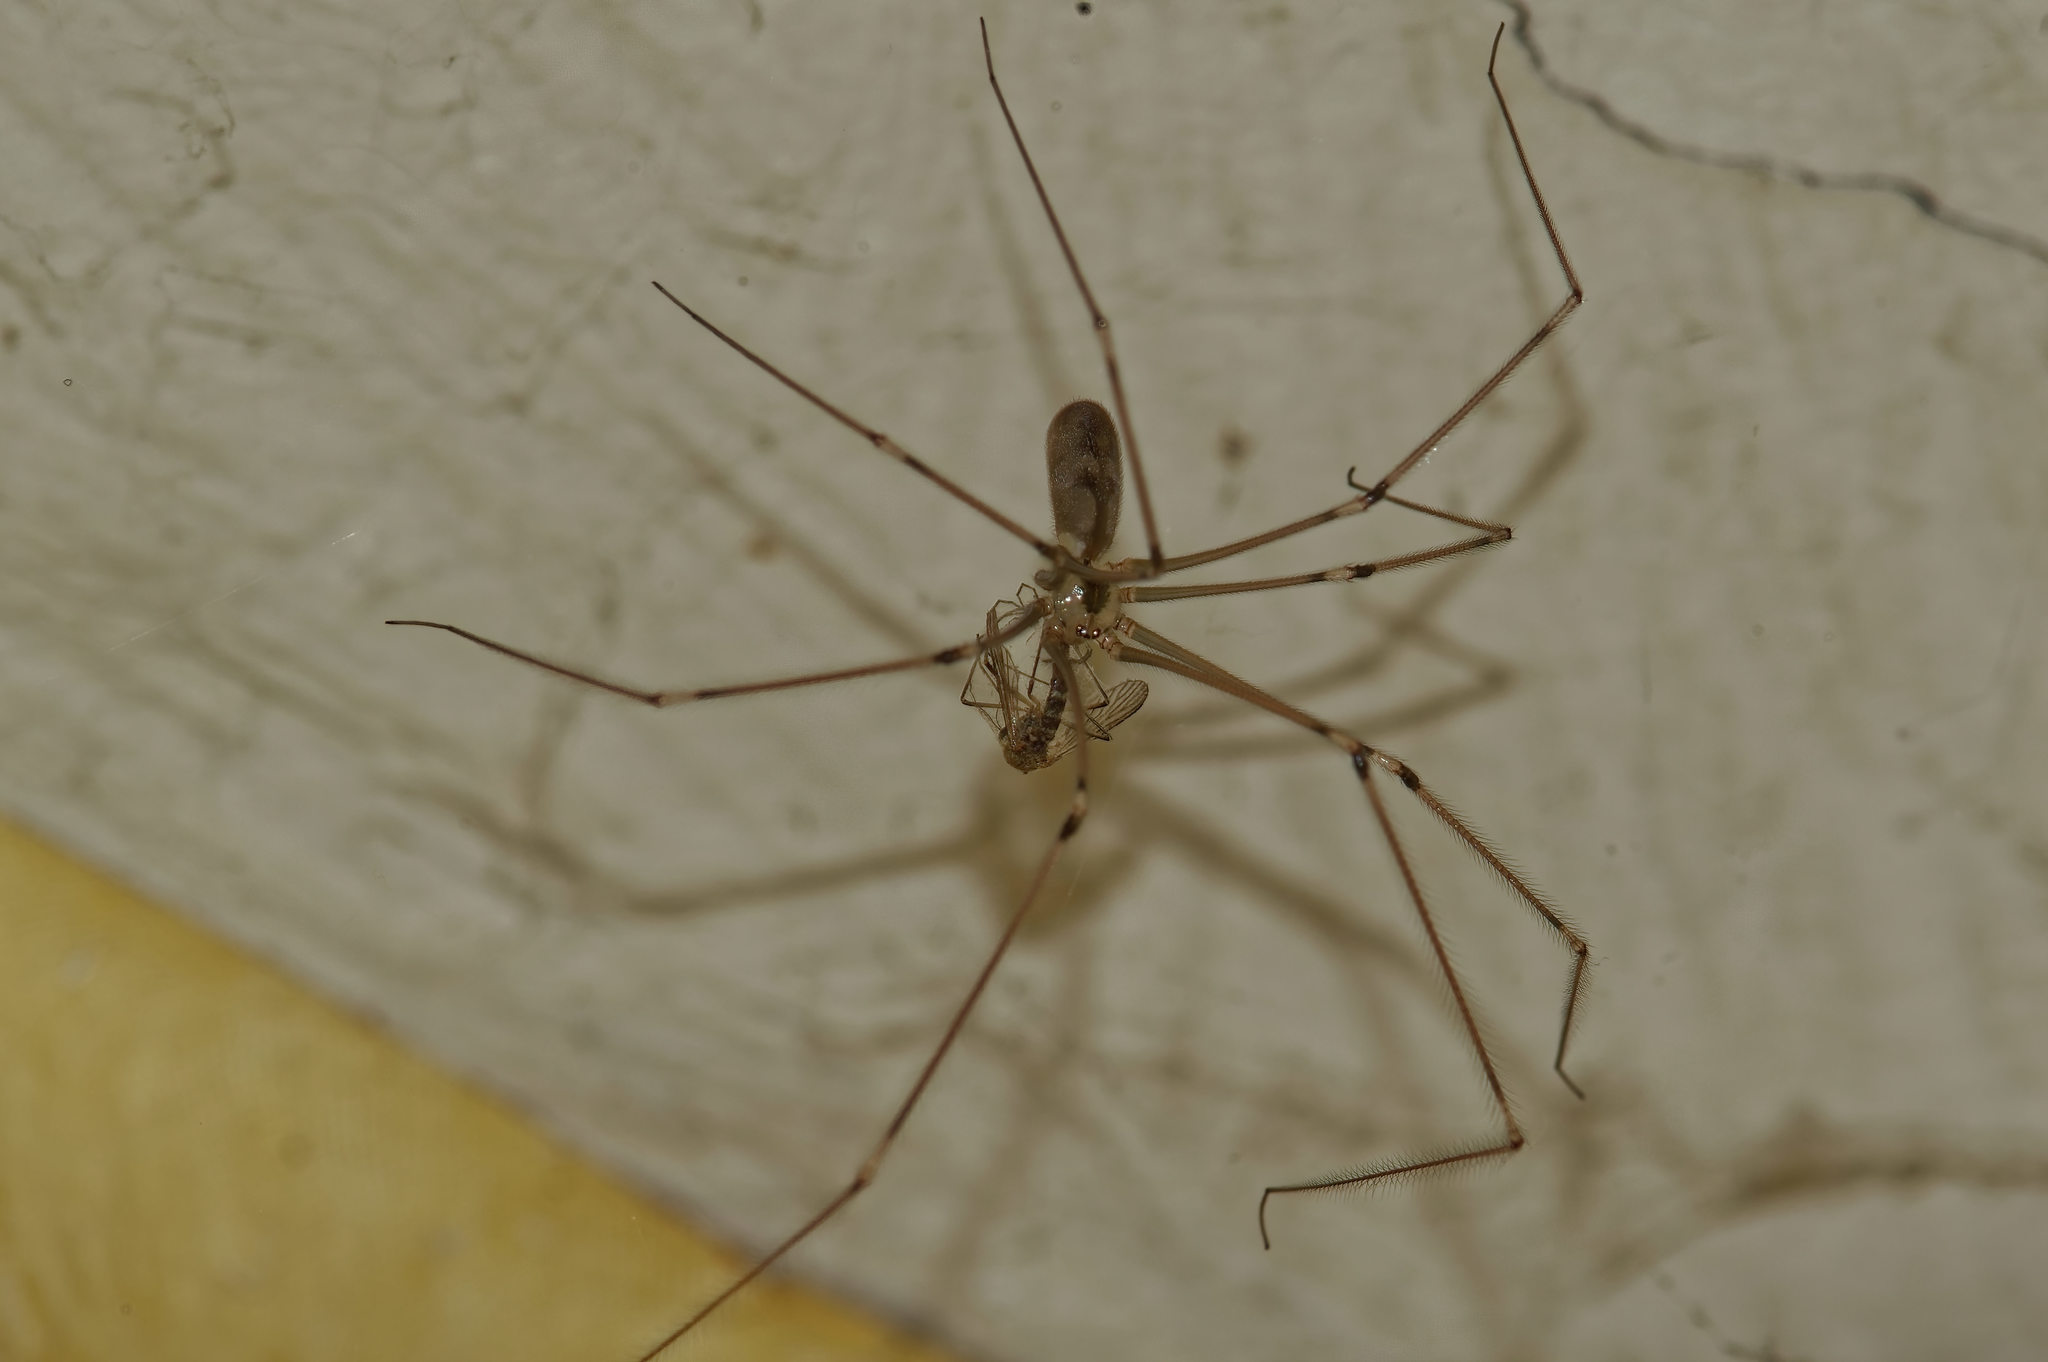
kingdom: Animalia
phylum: Arthropoda
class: Arachnida
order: Araneae
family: Pholcidae
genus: Pholcus
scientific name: Pholcus phalangioides
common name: Longbodied cellar spider
